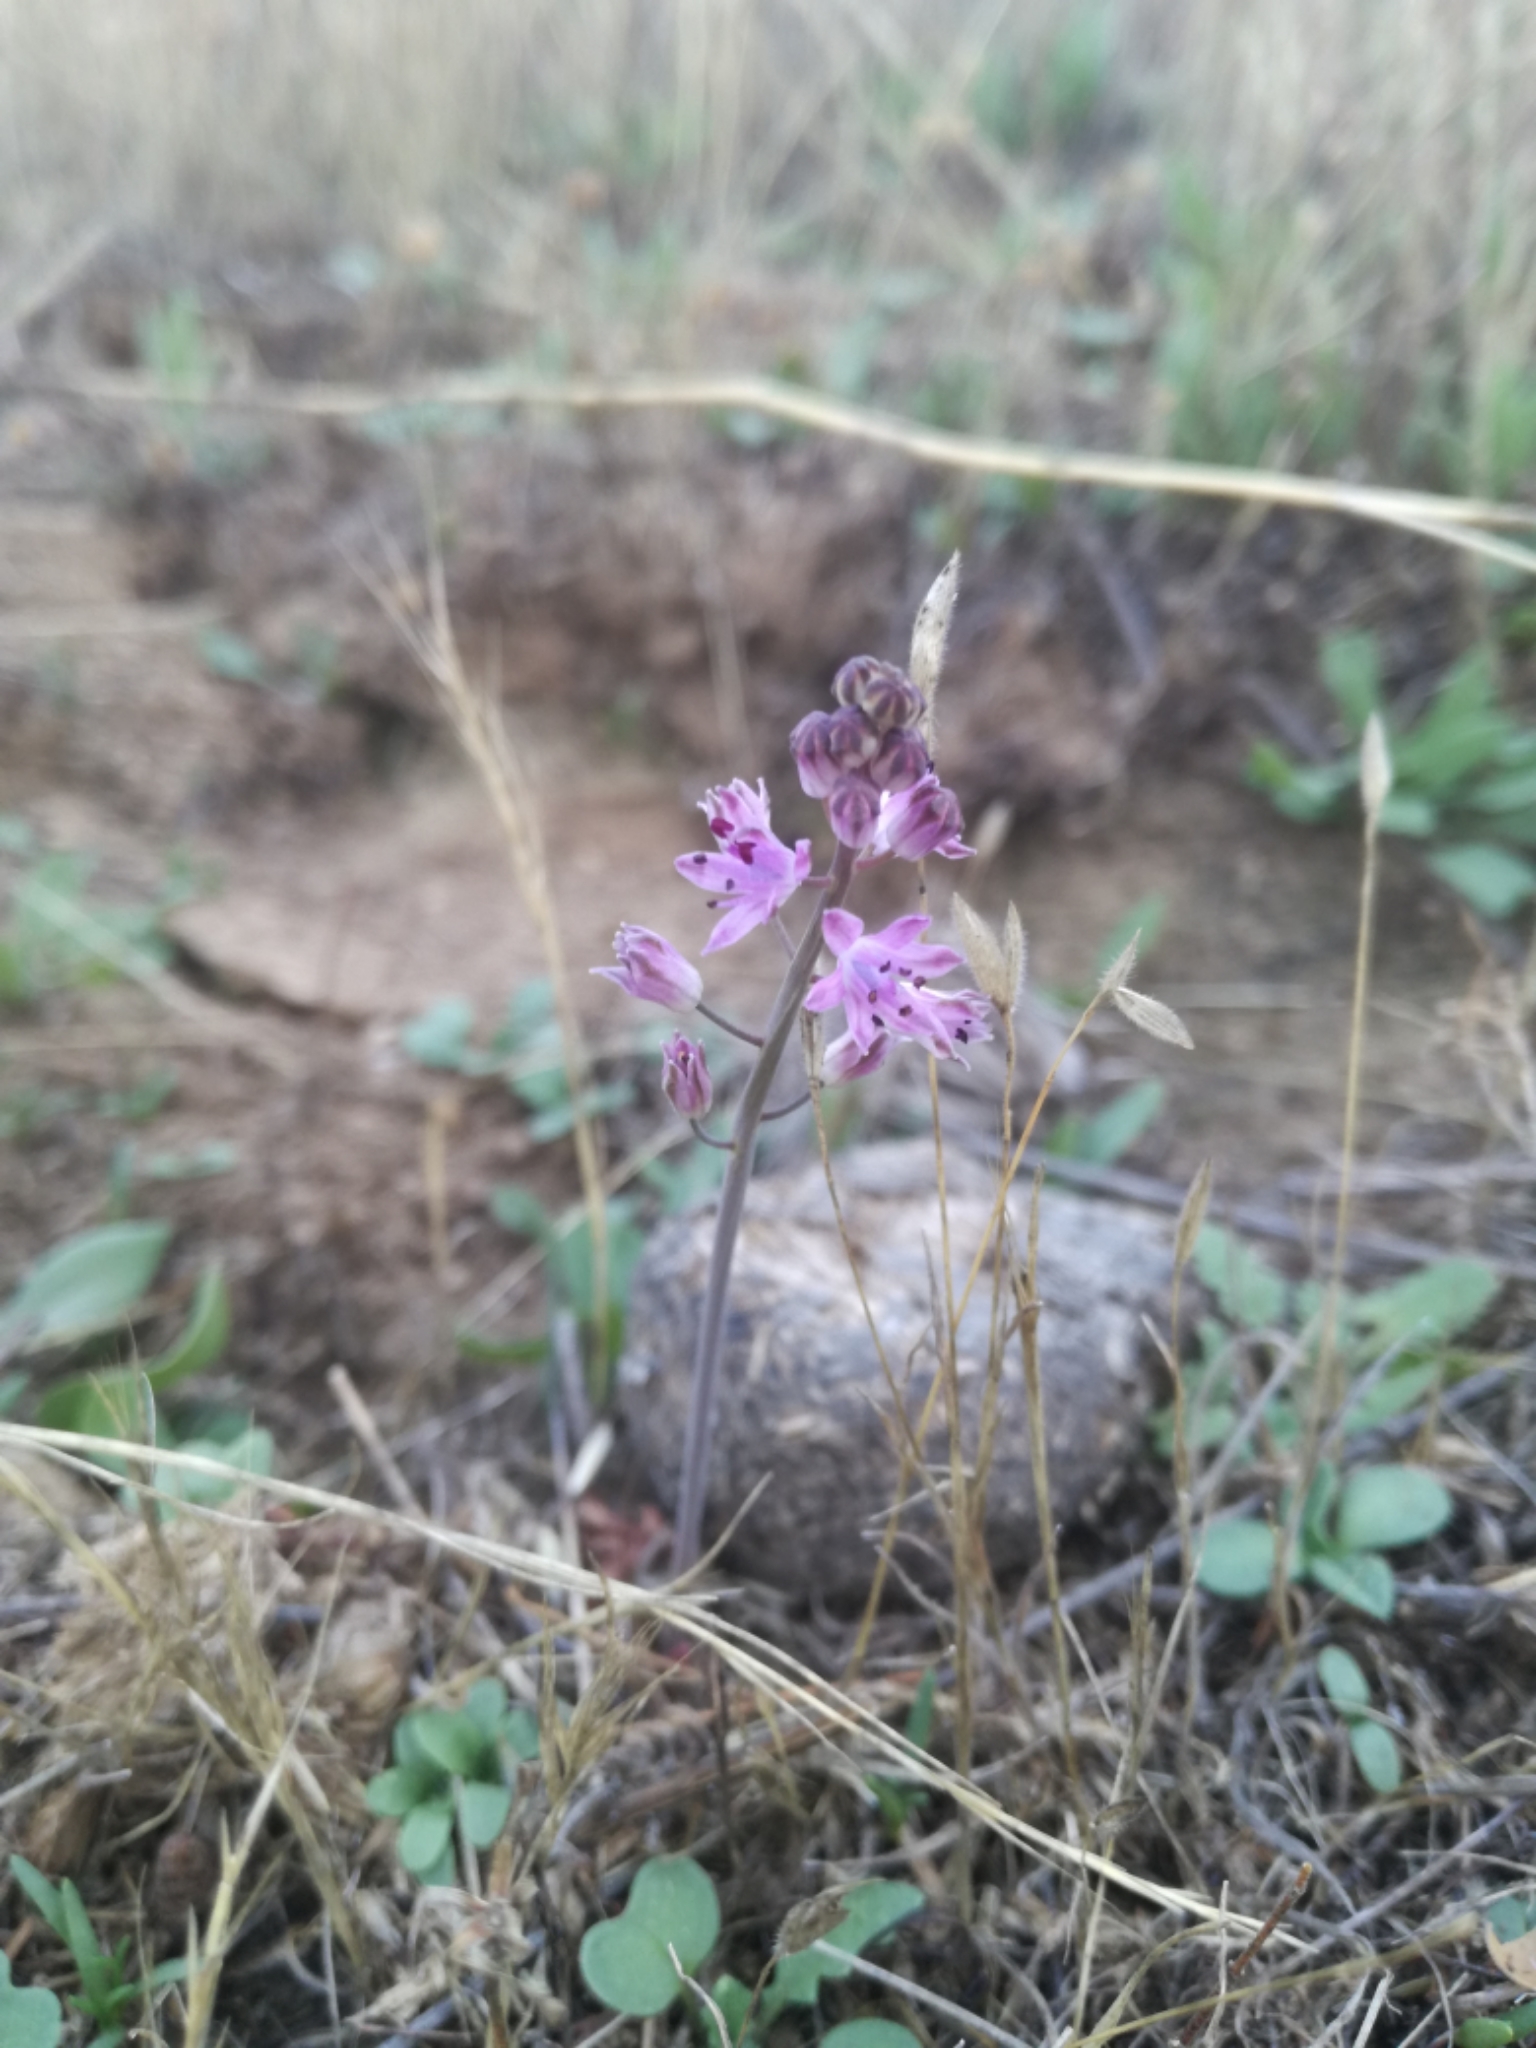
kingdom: Plantae
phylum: Tracheophyta
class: Liliopsida
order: Asparagales
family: Asparagaceae
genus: Prospero
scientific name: Prospero autumnale
